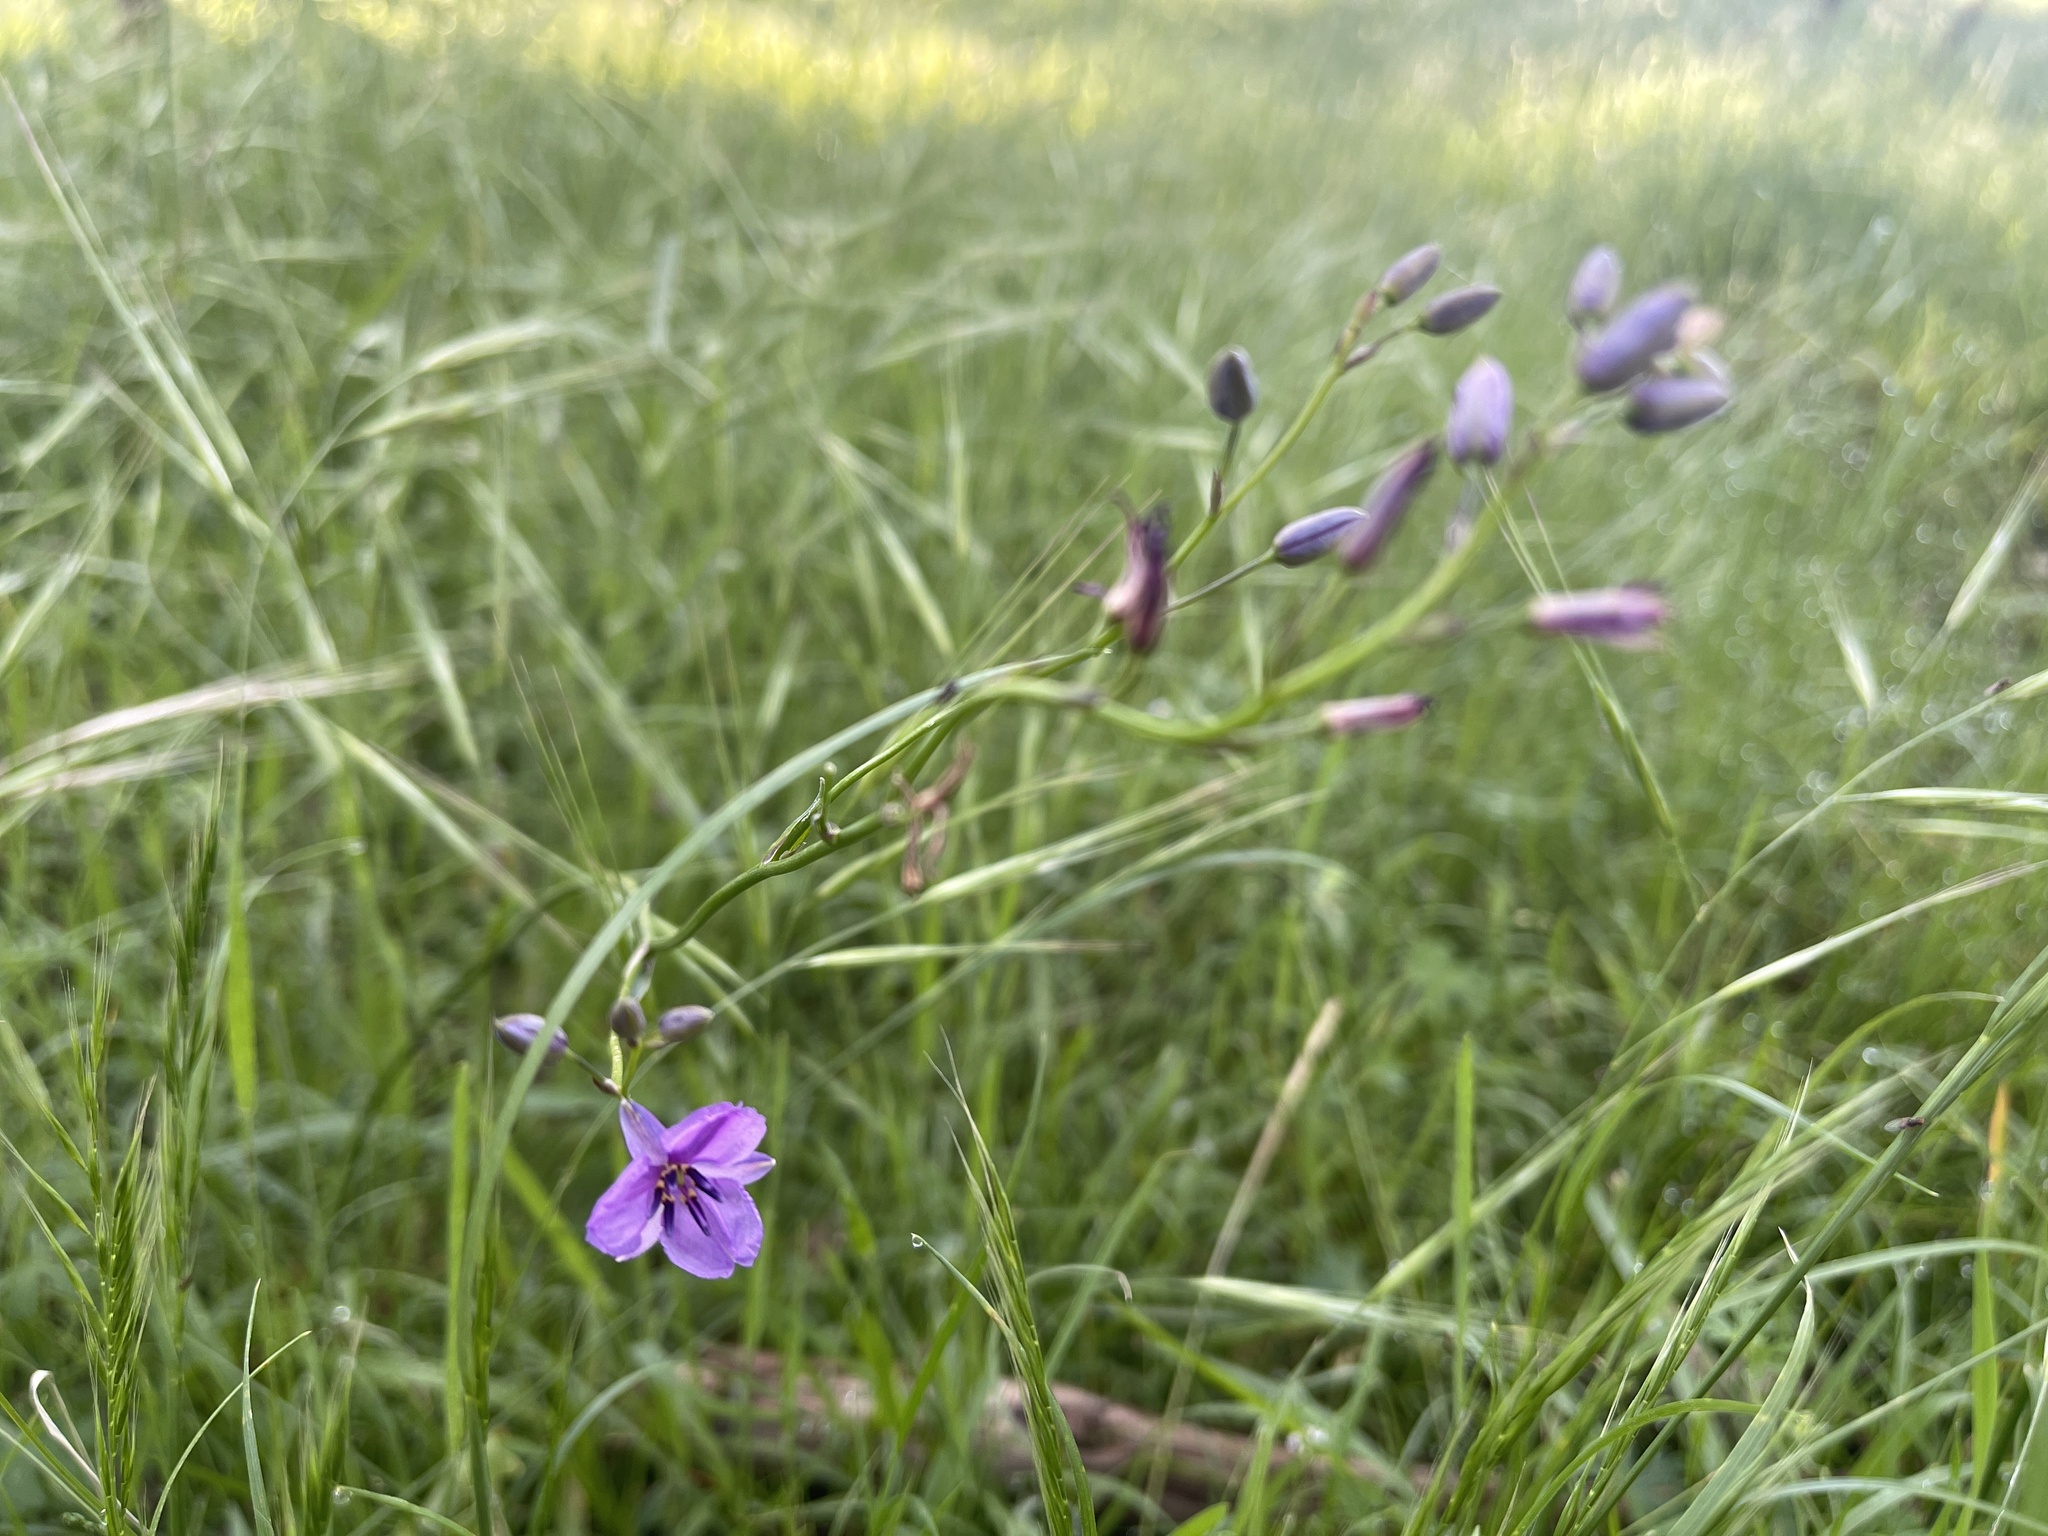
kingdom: Plantae
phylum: Tracheophyta
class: Liliopsida
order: Asparagales
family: Asparagaceae
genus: Arthropodium
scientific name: Arthropodium strictum
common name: Chocolate-lily
